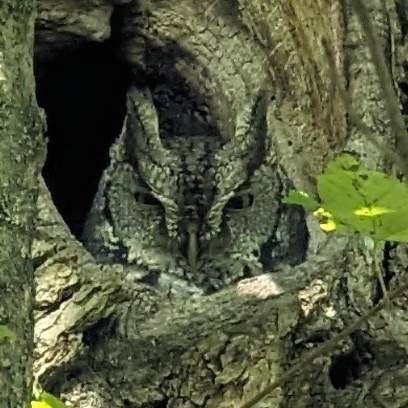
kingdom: Animalia
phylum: Chordata
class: Aves
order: Strigiformes
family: Strigidae
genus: Megascops
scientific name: Megascops asio
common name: Eastern screech-owl
